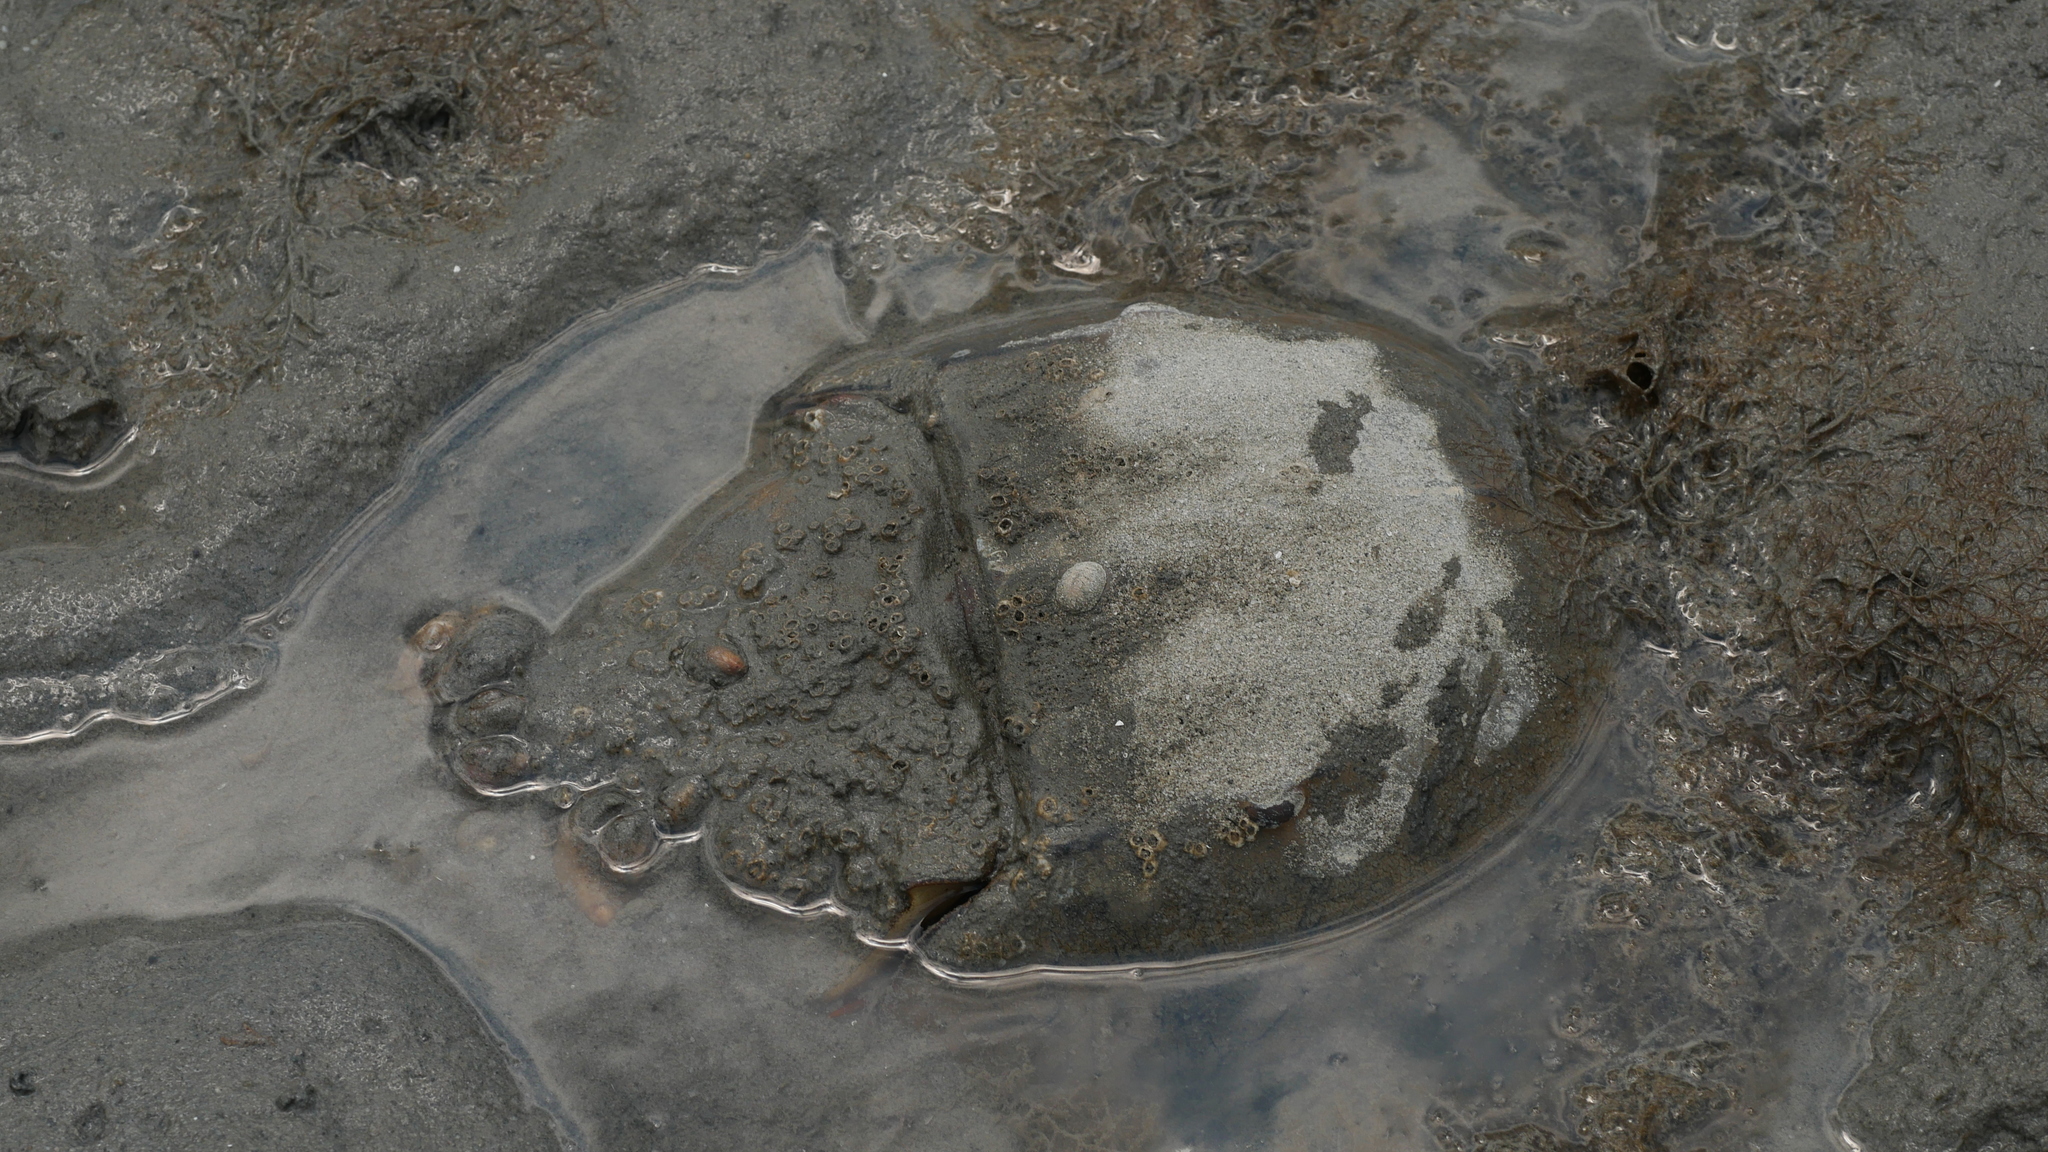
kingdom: Animalia
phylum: Arthropoda
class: Merostomata
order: Xiphosurida
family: Limulidae
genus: Limulus
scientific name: Limulus polyphemus
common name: Horseshoe crab
